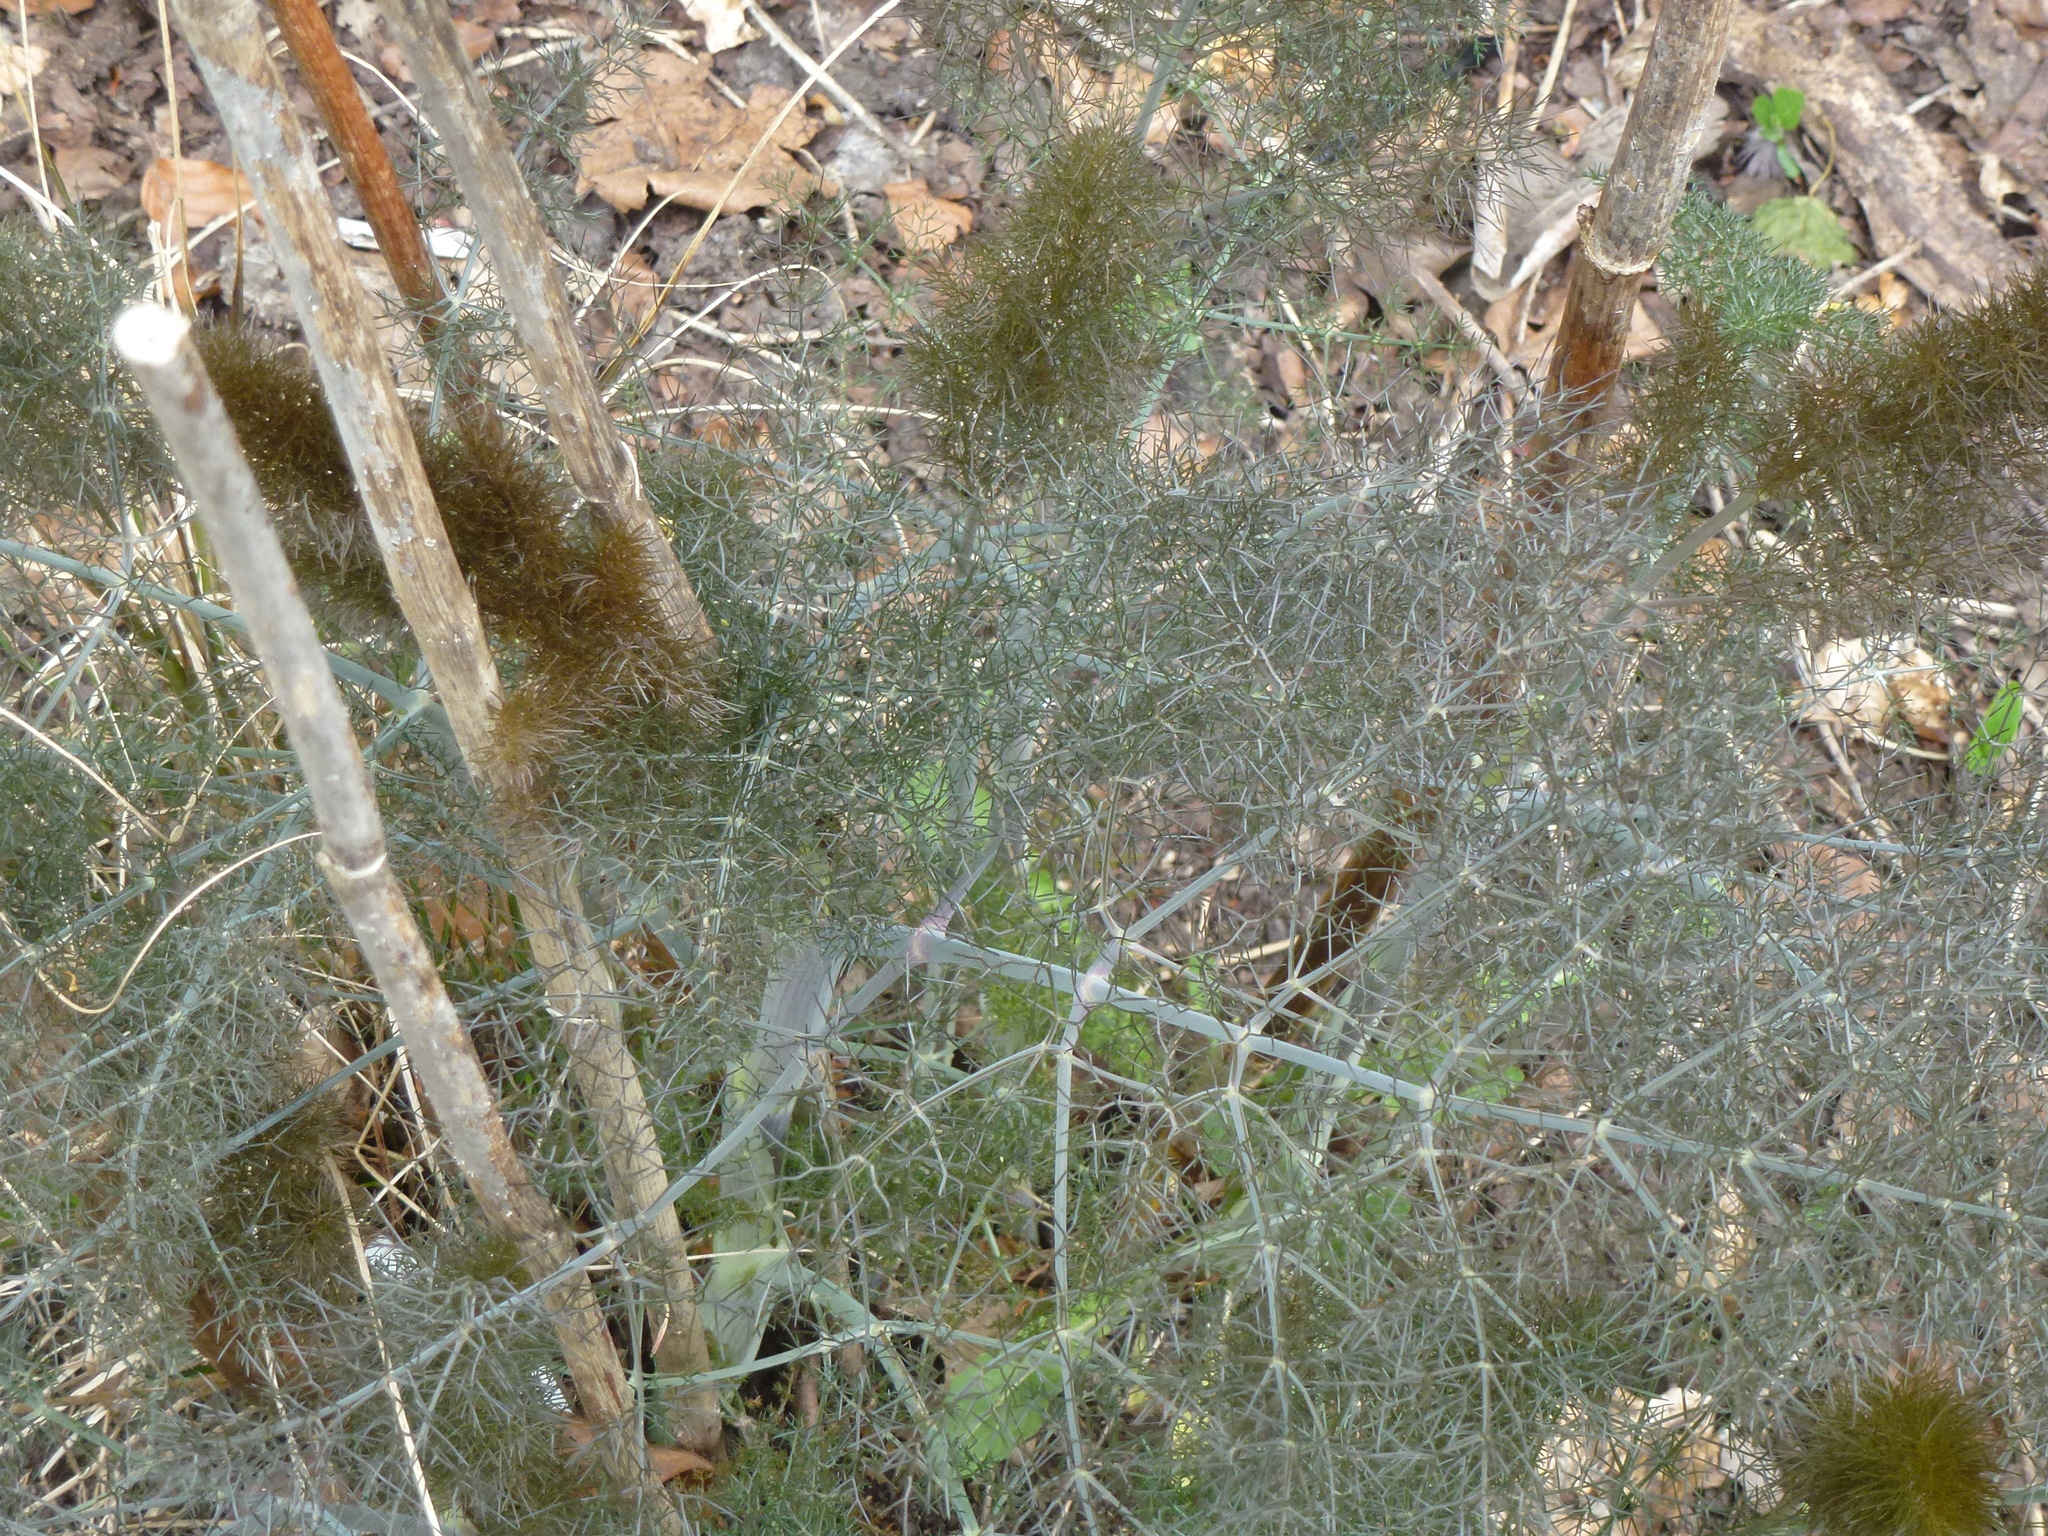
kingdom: Plantae
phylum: Tracheophyta
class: Magnoliopsida
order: Apiales
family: Apiaceae
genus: Foeniculum
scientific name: Foeniculum vulgare
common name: Fennel
